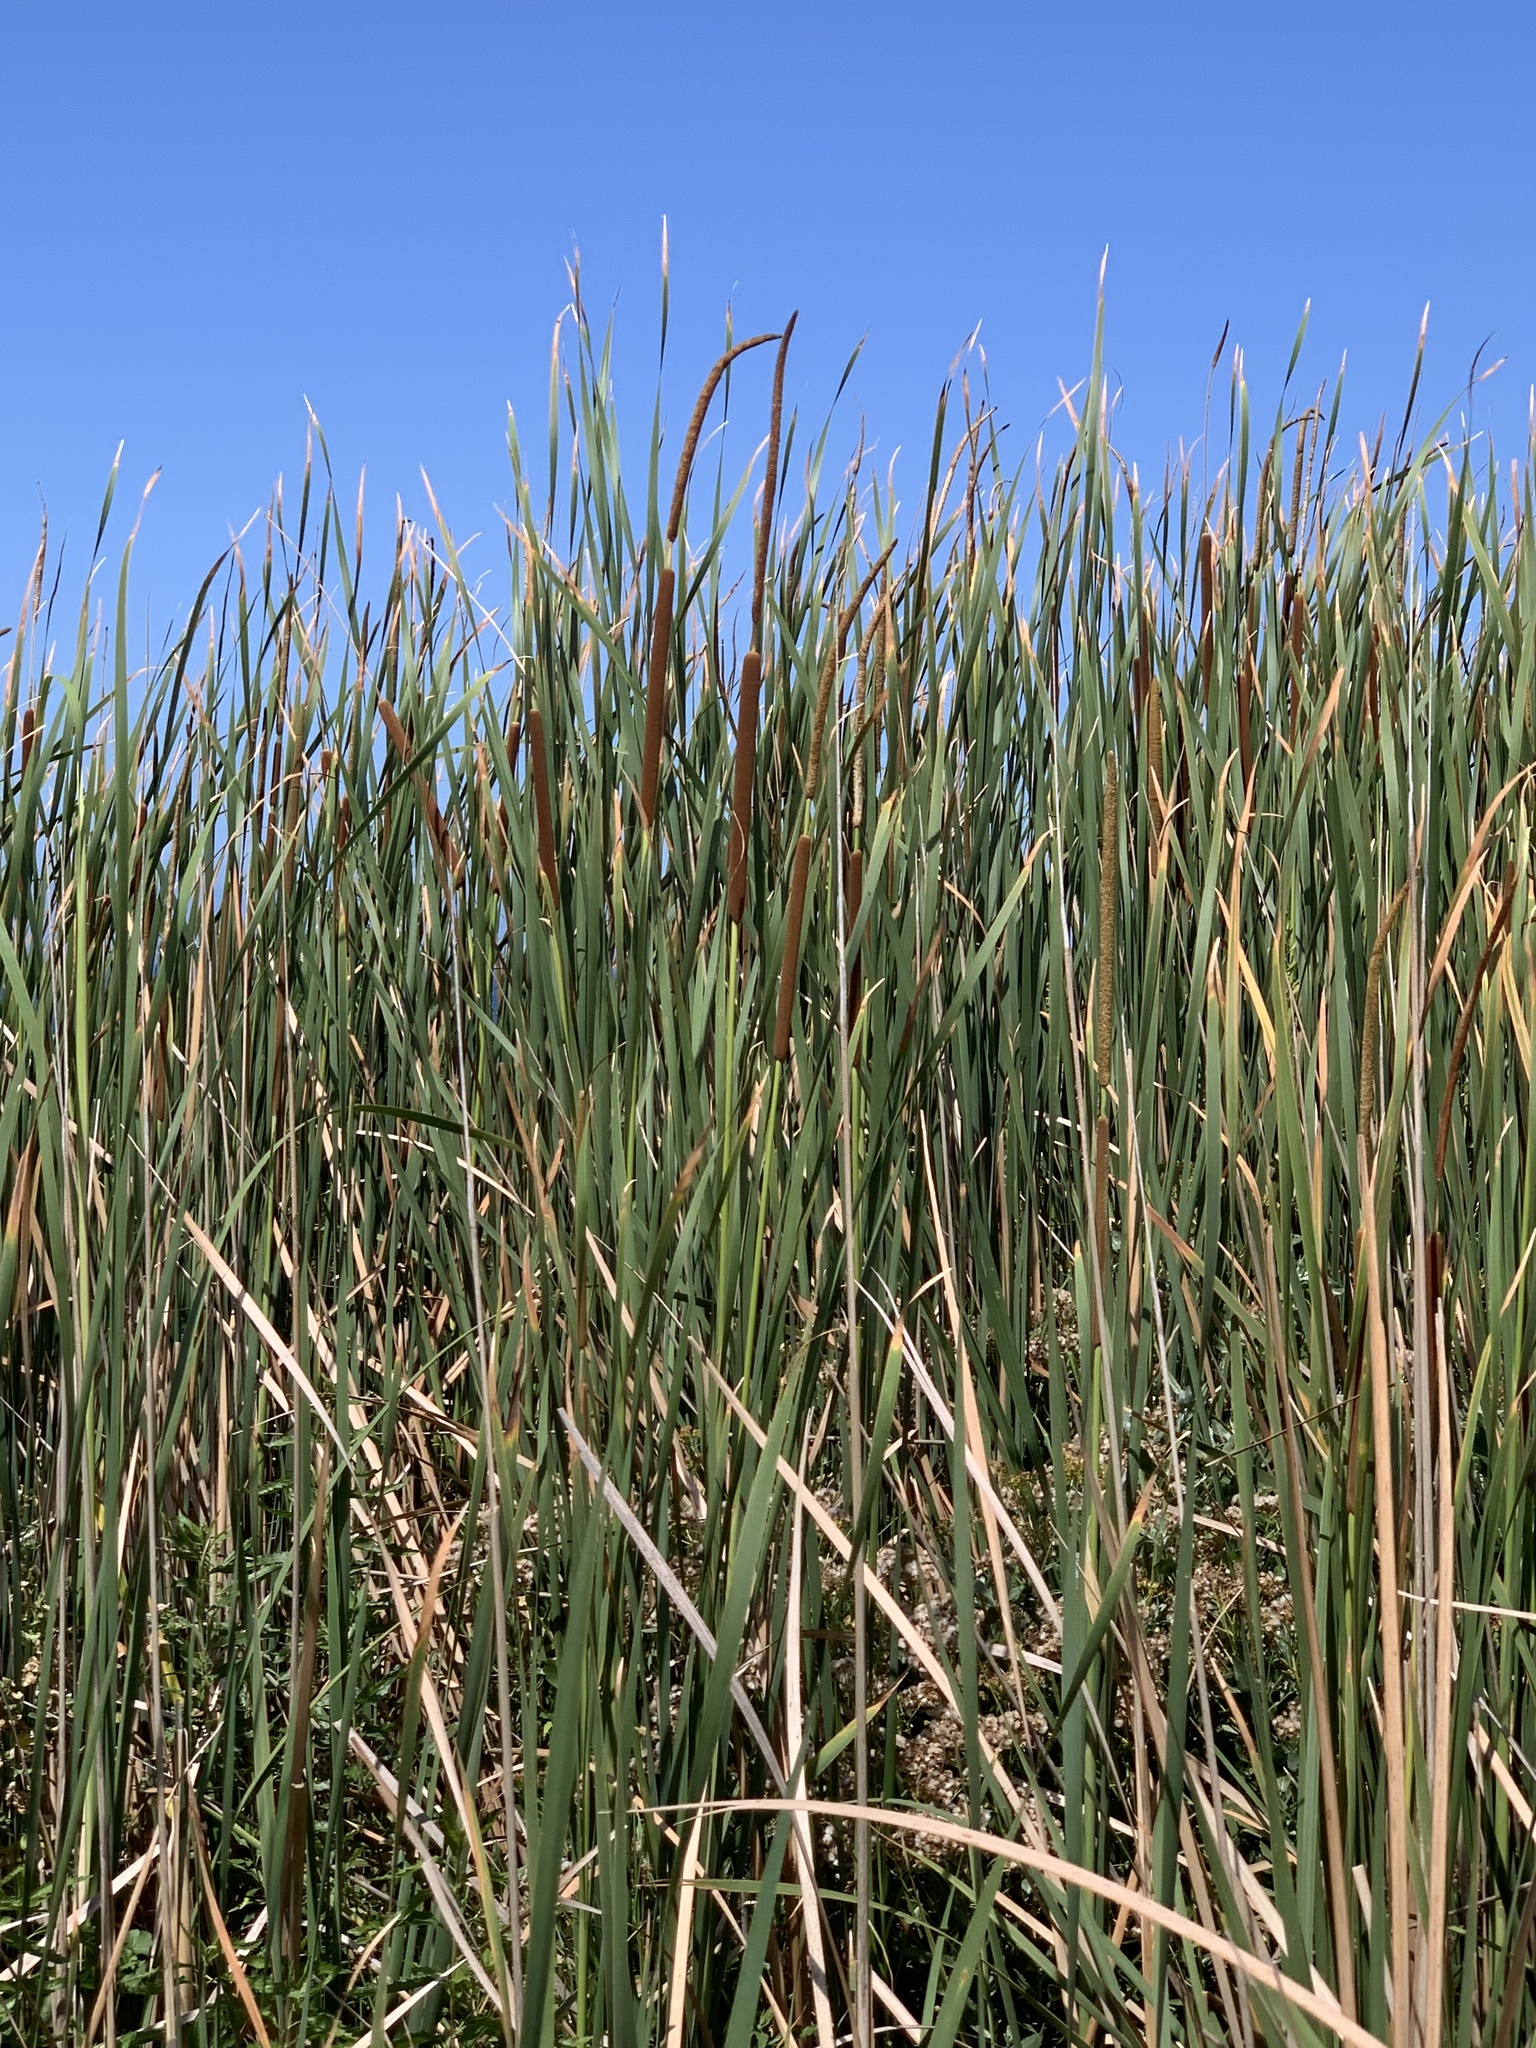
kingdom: Plantae
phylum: Tracheophyta
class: Liliopsida
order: Poales
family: Typhaceae
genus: Typha
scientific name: Typha capensis
